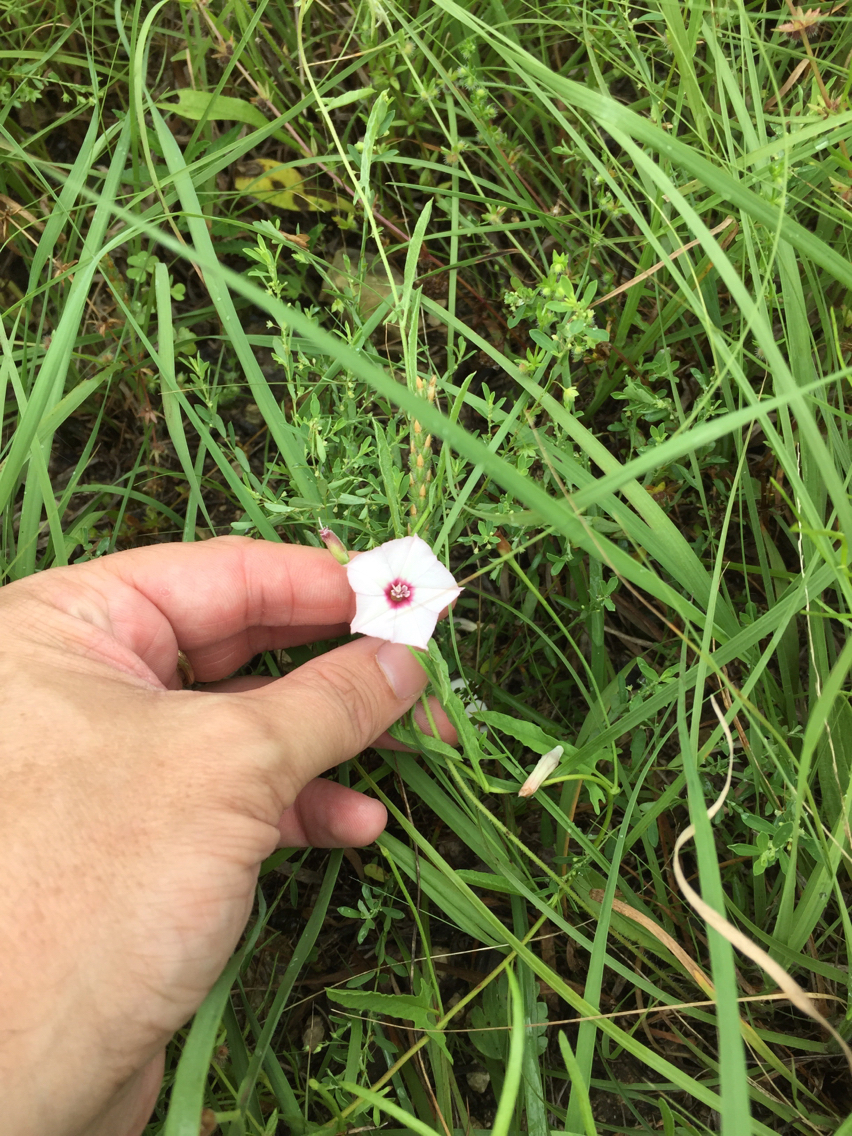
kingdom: Plantae
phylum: Tracheophyta
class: Magnoliopsida
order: Solanales
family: Convolvulaceae
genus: Convolvulus
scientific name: Convolvulus equitans
